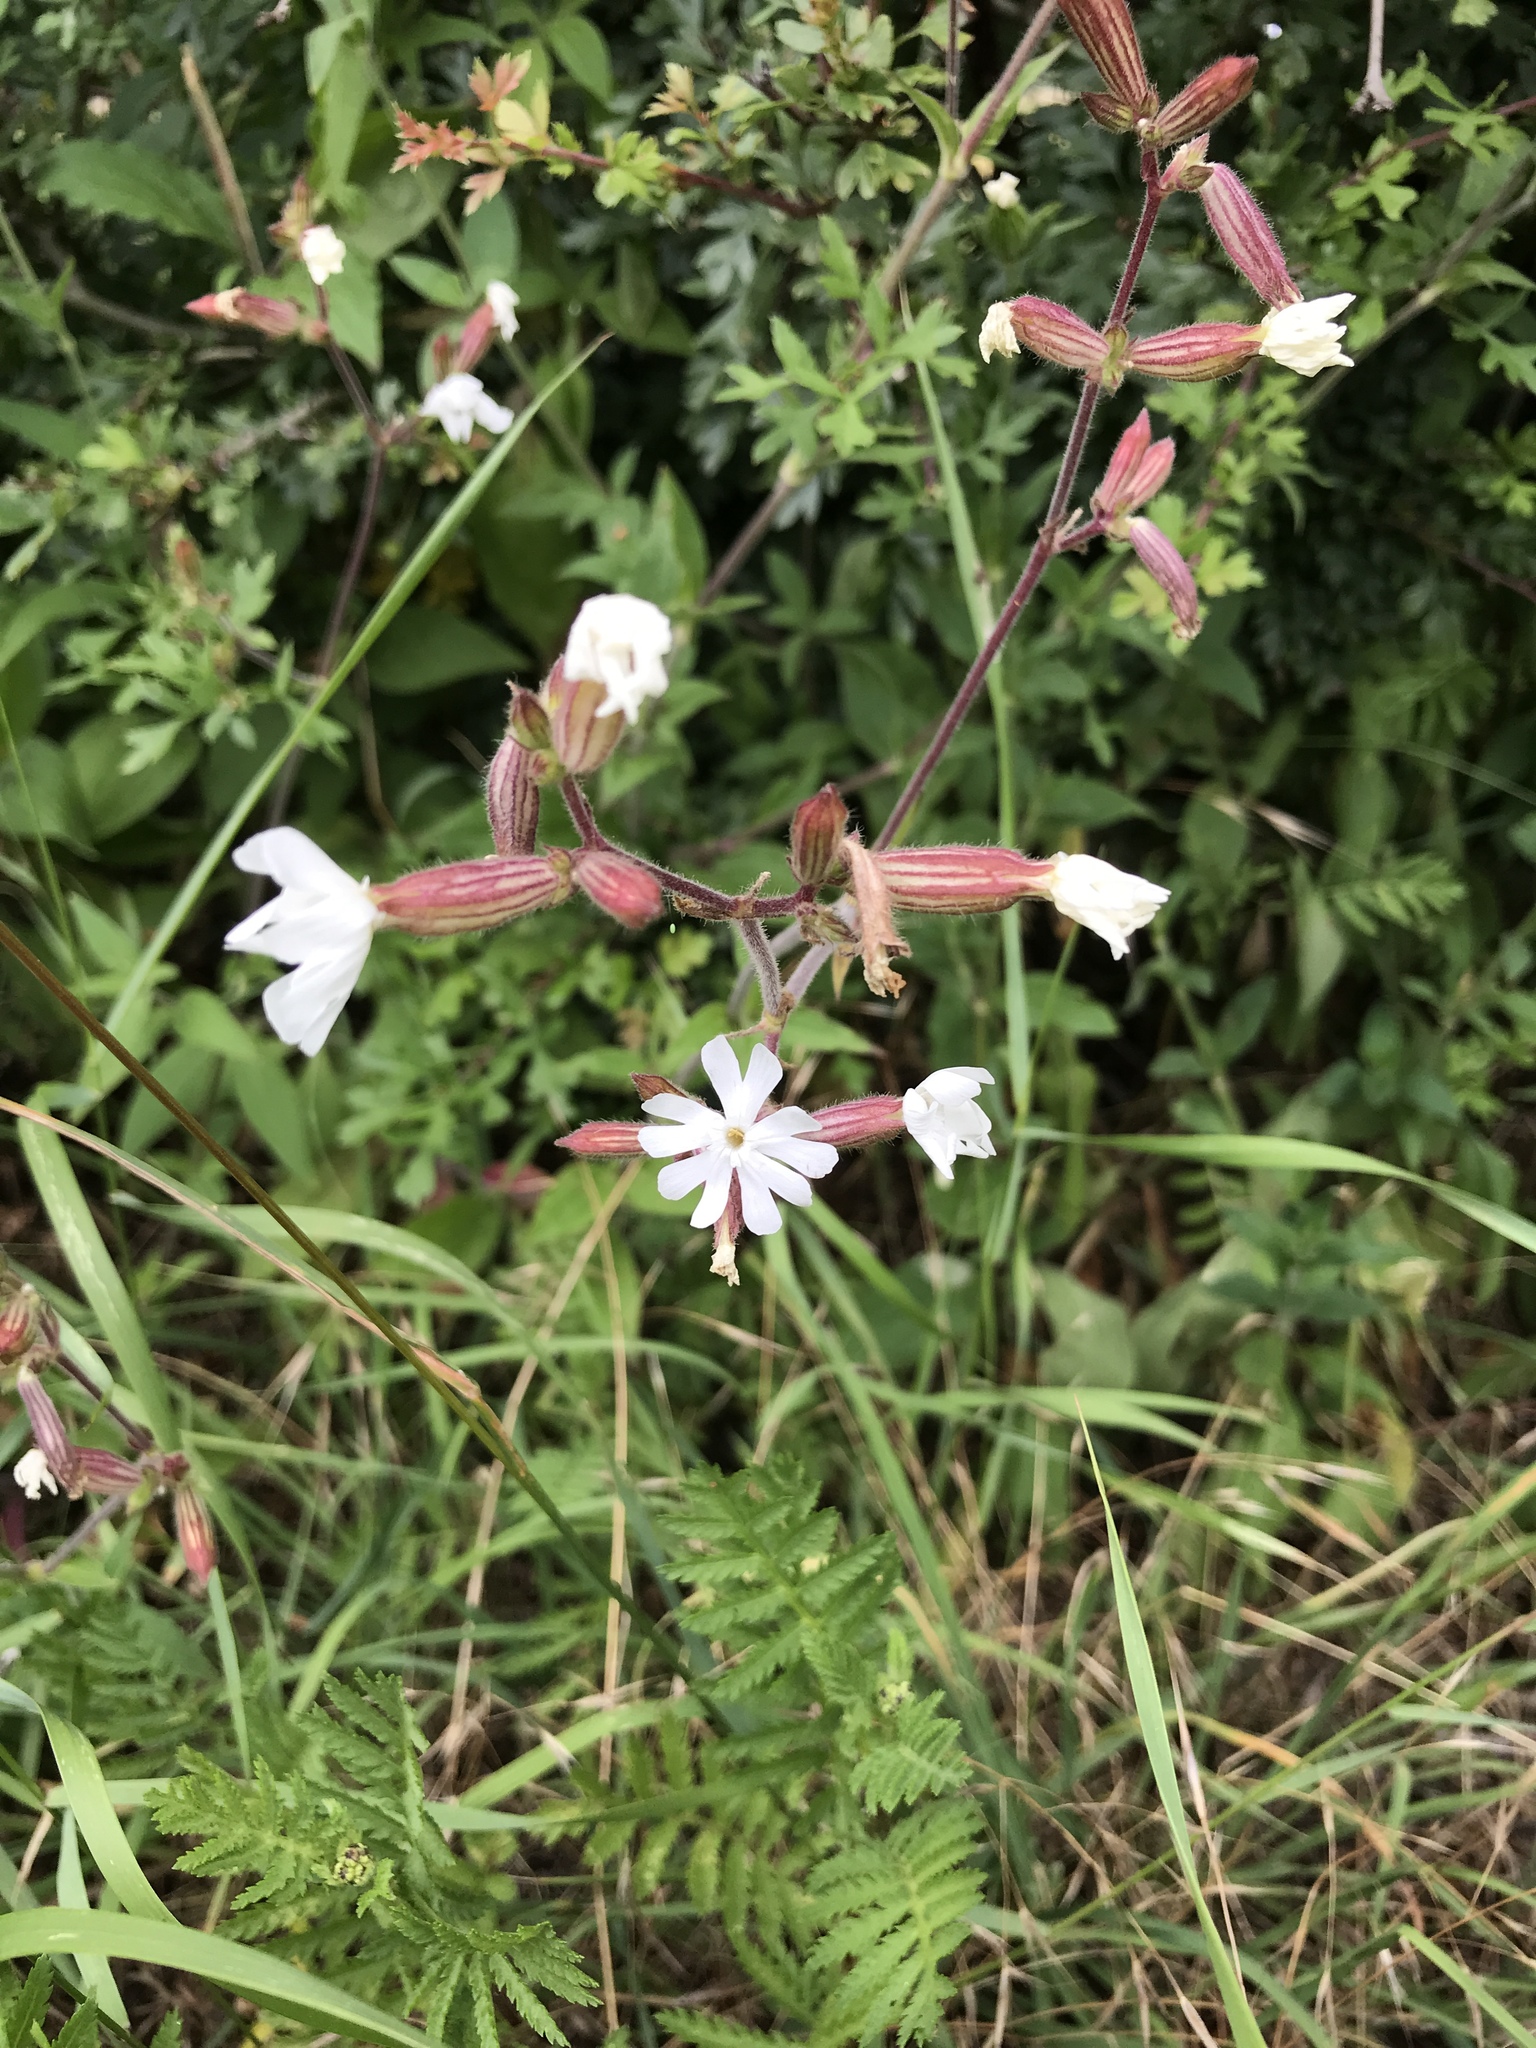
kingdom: Plantae
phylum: Tracheophyta
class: Magnoliopsida
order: Caryophyllales
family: Caryophyllaceae
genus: Silene
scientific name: Silene latifolia
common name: White campion
